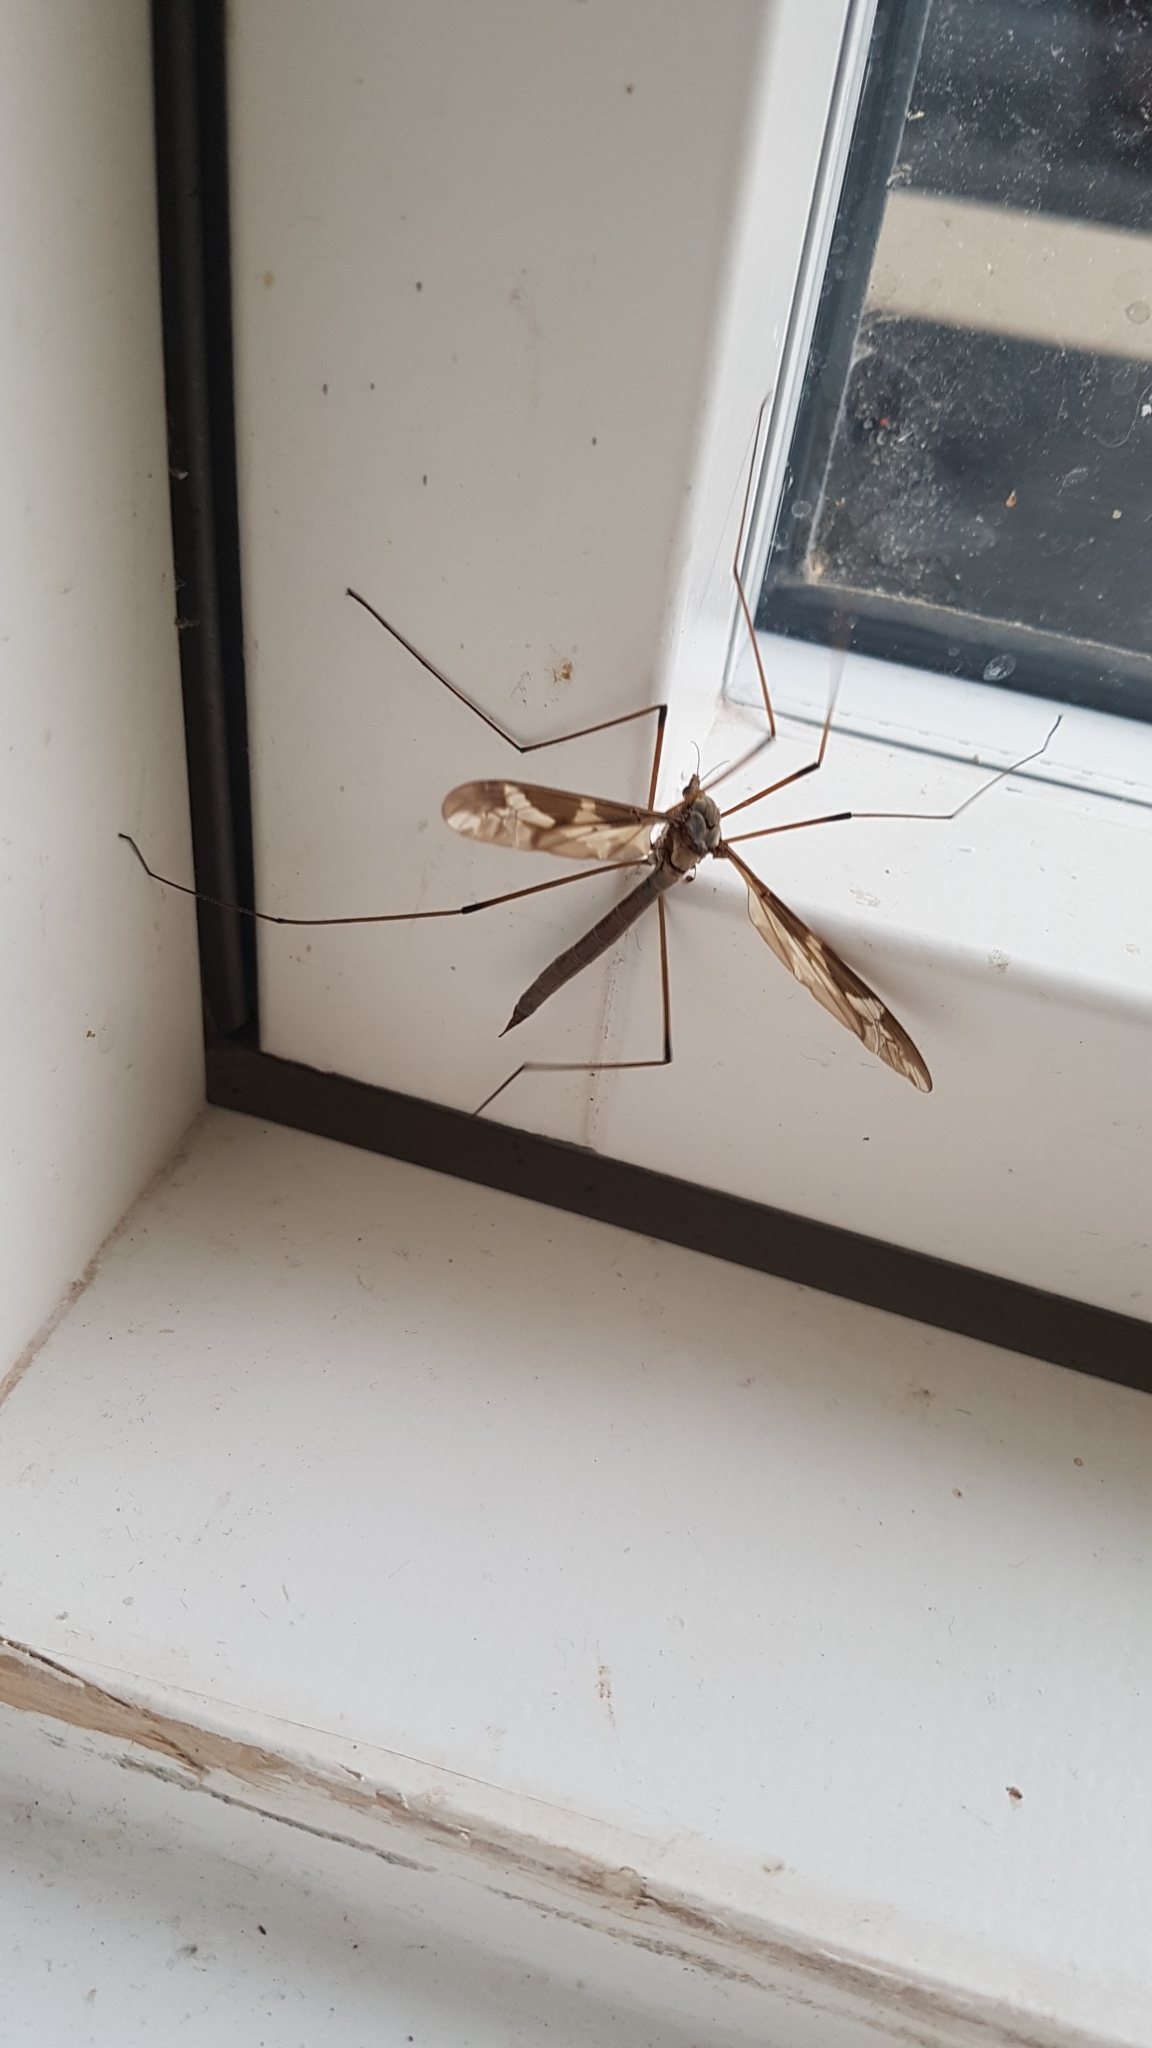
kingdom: Animalia
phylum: Arthropoda
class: Insecta
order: Diptera
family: Tipulidae
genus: Tipula
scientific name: Tipula maxima
